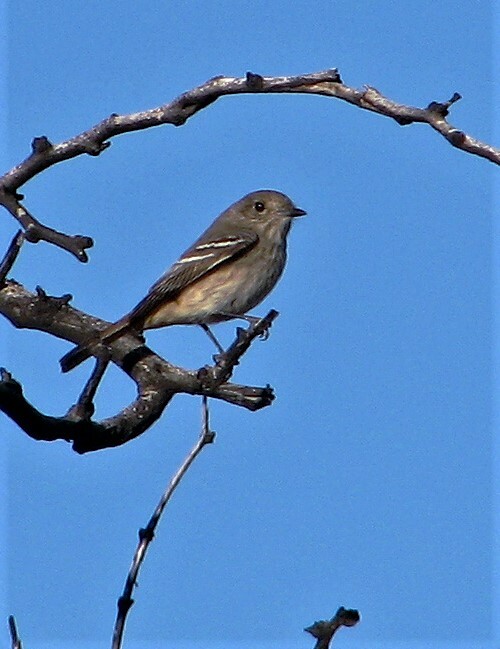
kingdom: Animalia
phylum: Chordata
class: Aves
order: Passeriformes
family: Tyrannidae
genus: Knipolegus
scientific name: Knipolegus aterrimus
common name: White-winged black tyrant
